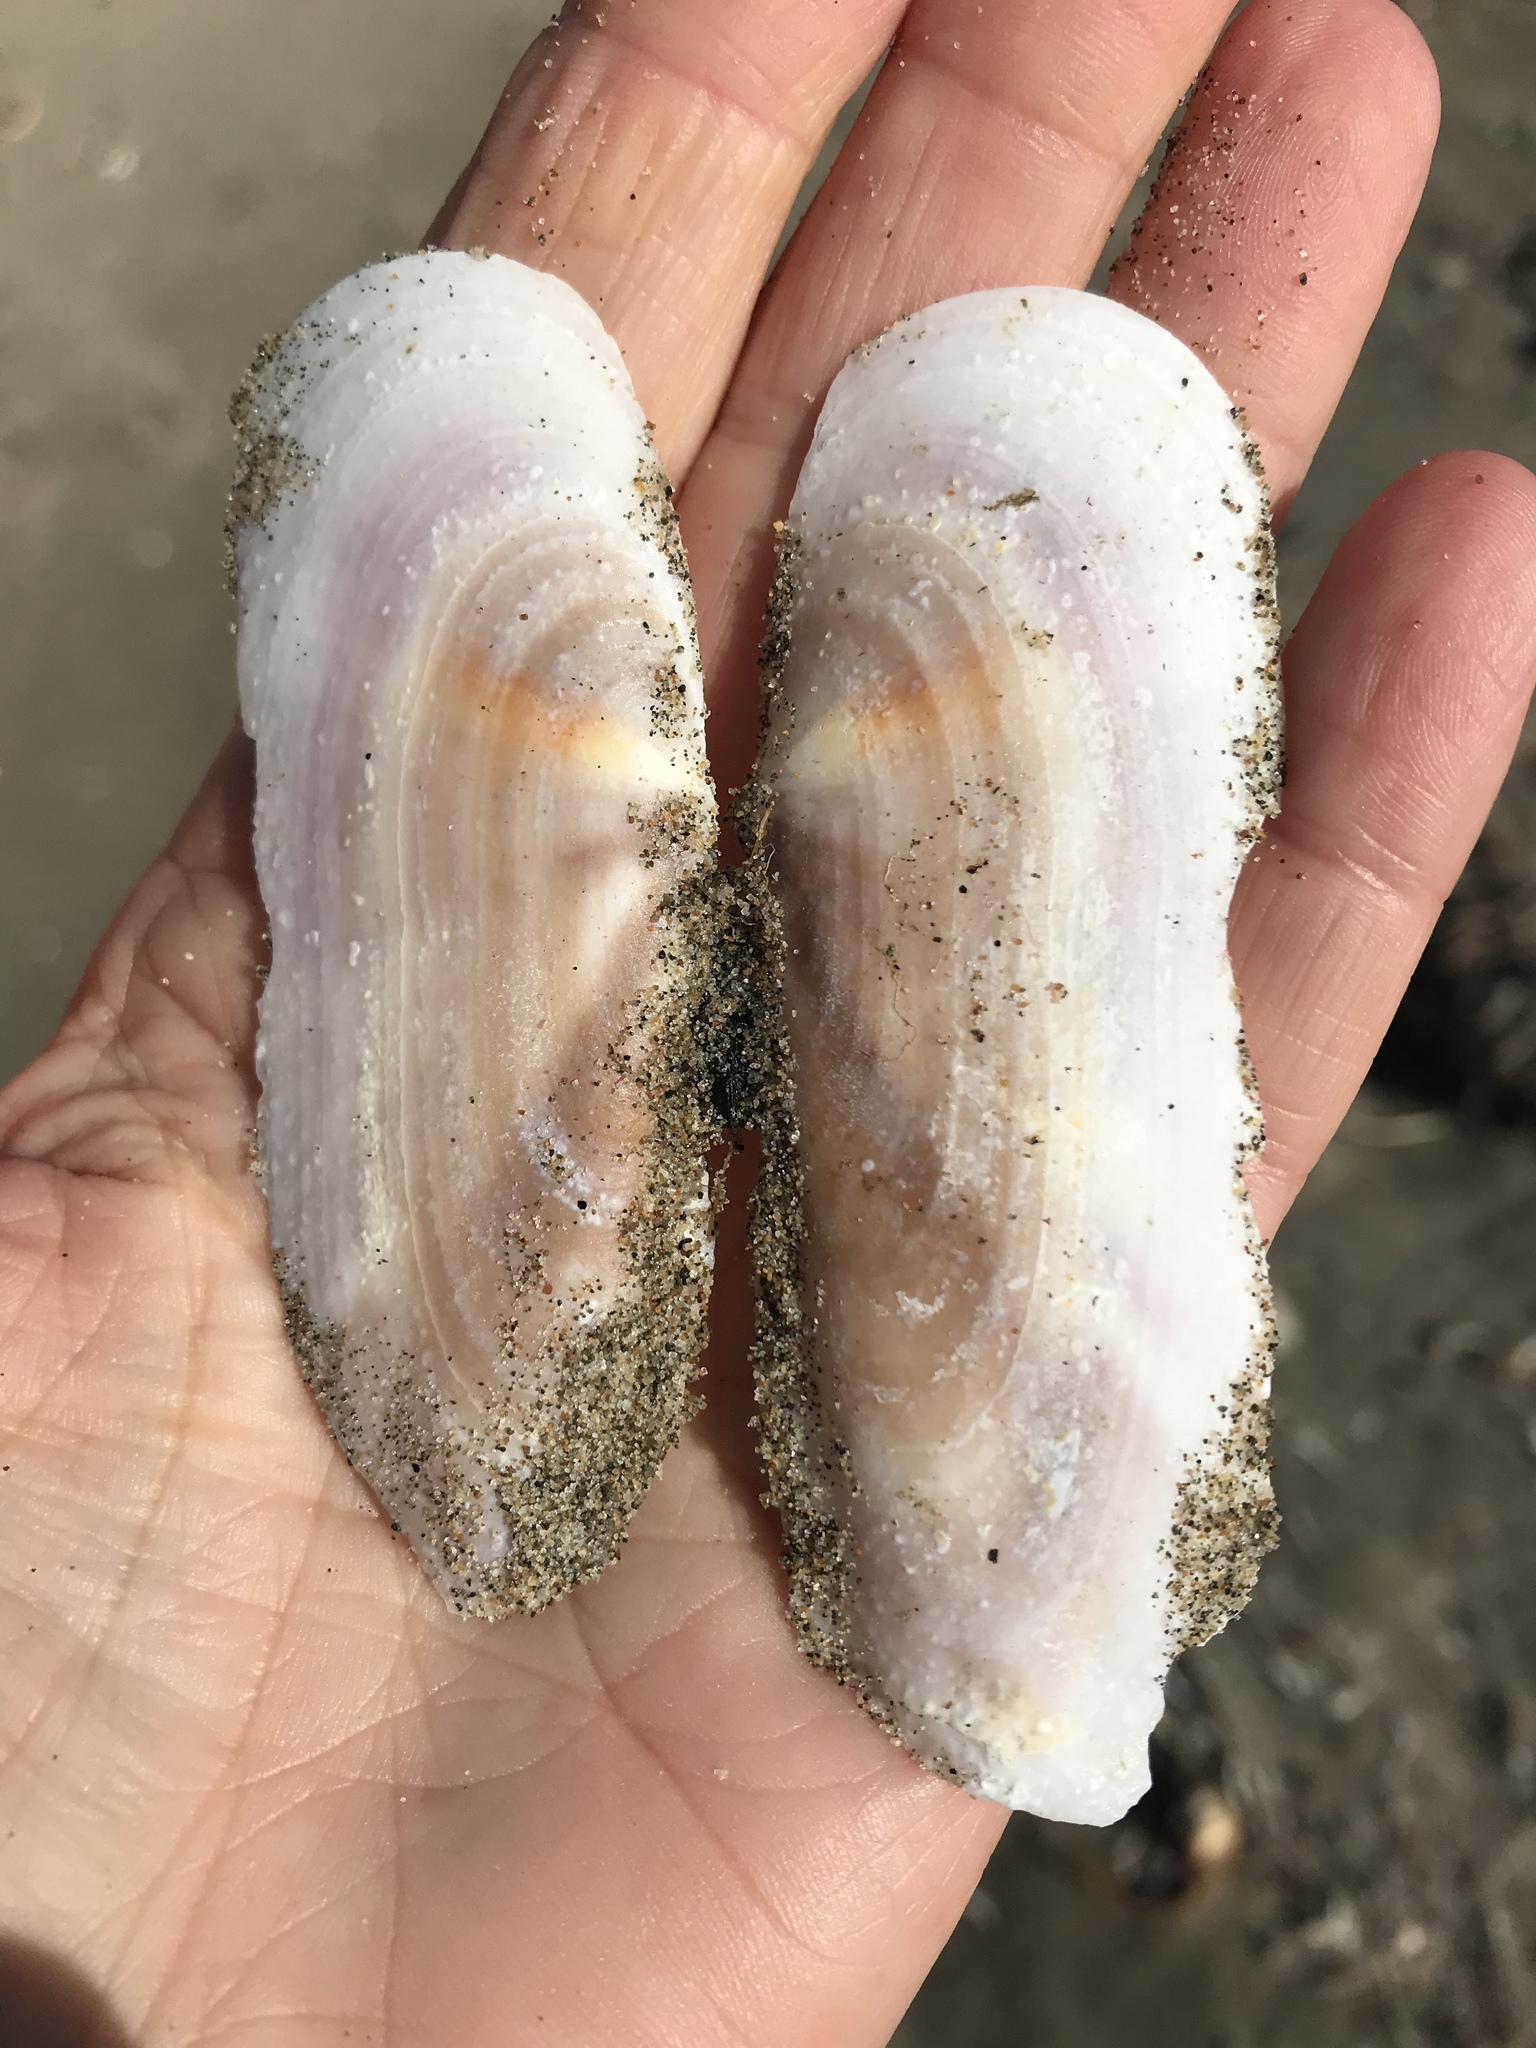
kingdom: Animalia
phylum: Mollusca
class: Bivalvia
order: Adapedonta
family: Pharidae
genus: Siliqua
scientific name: Siliqua patula
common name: Pacific razor clam
